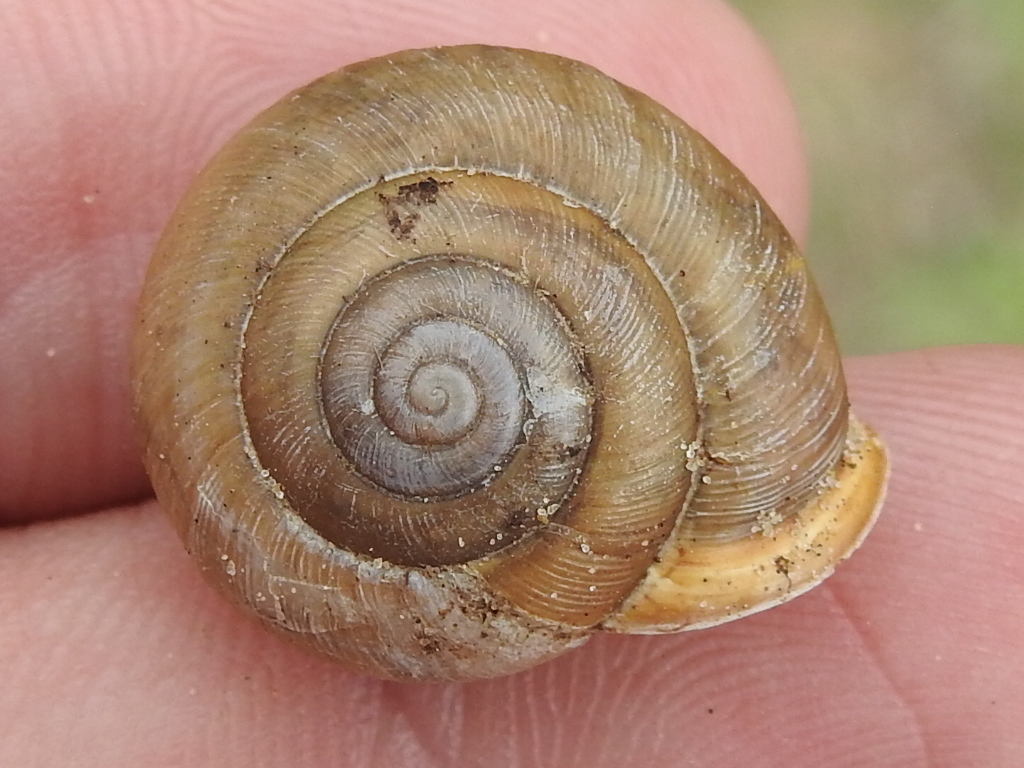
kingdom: Animalia
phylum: Mollusca
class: Gastropoda
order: Stylommatophora
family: Polygyridae
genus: Mesodon
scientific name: Mesodon thyroidus
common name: White-lip globe
